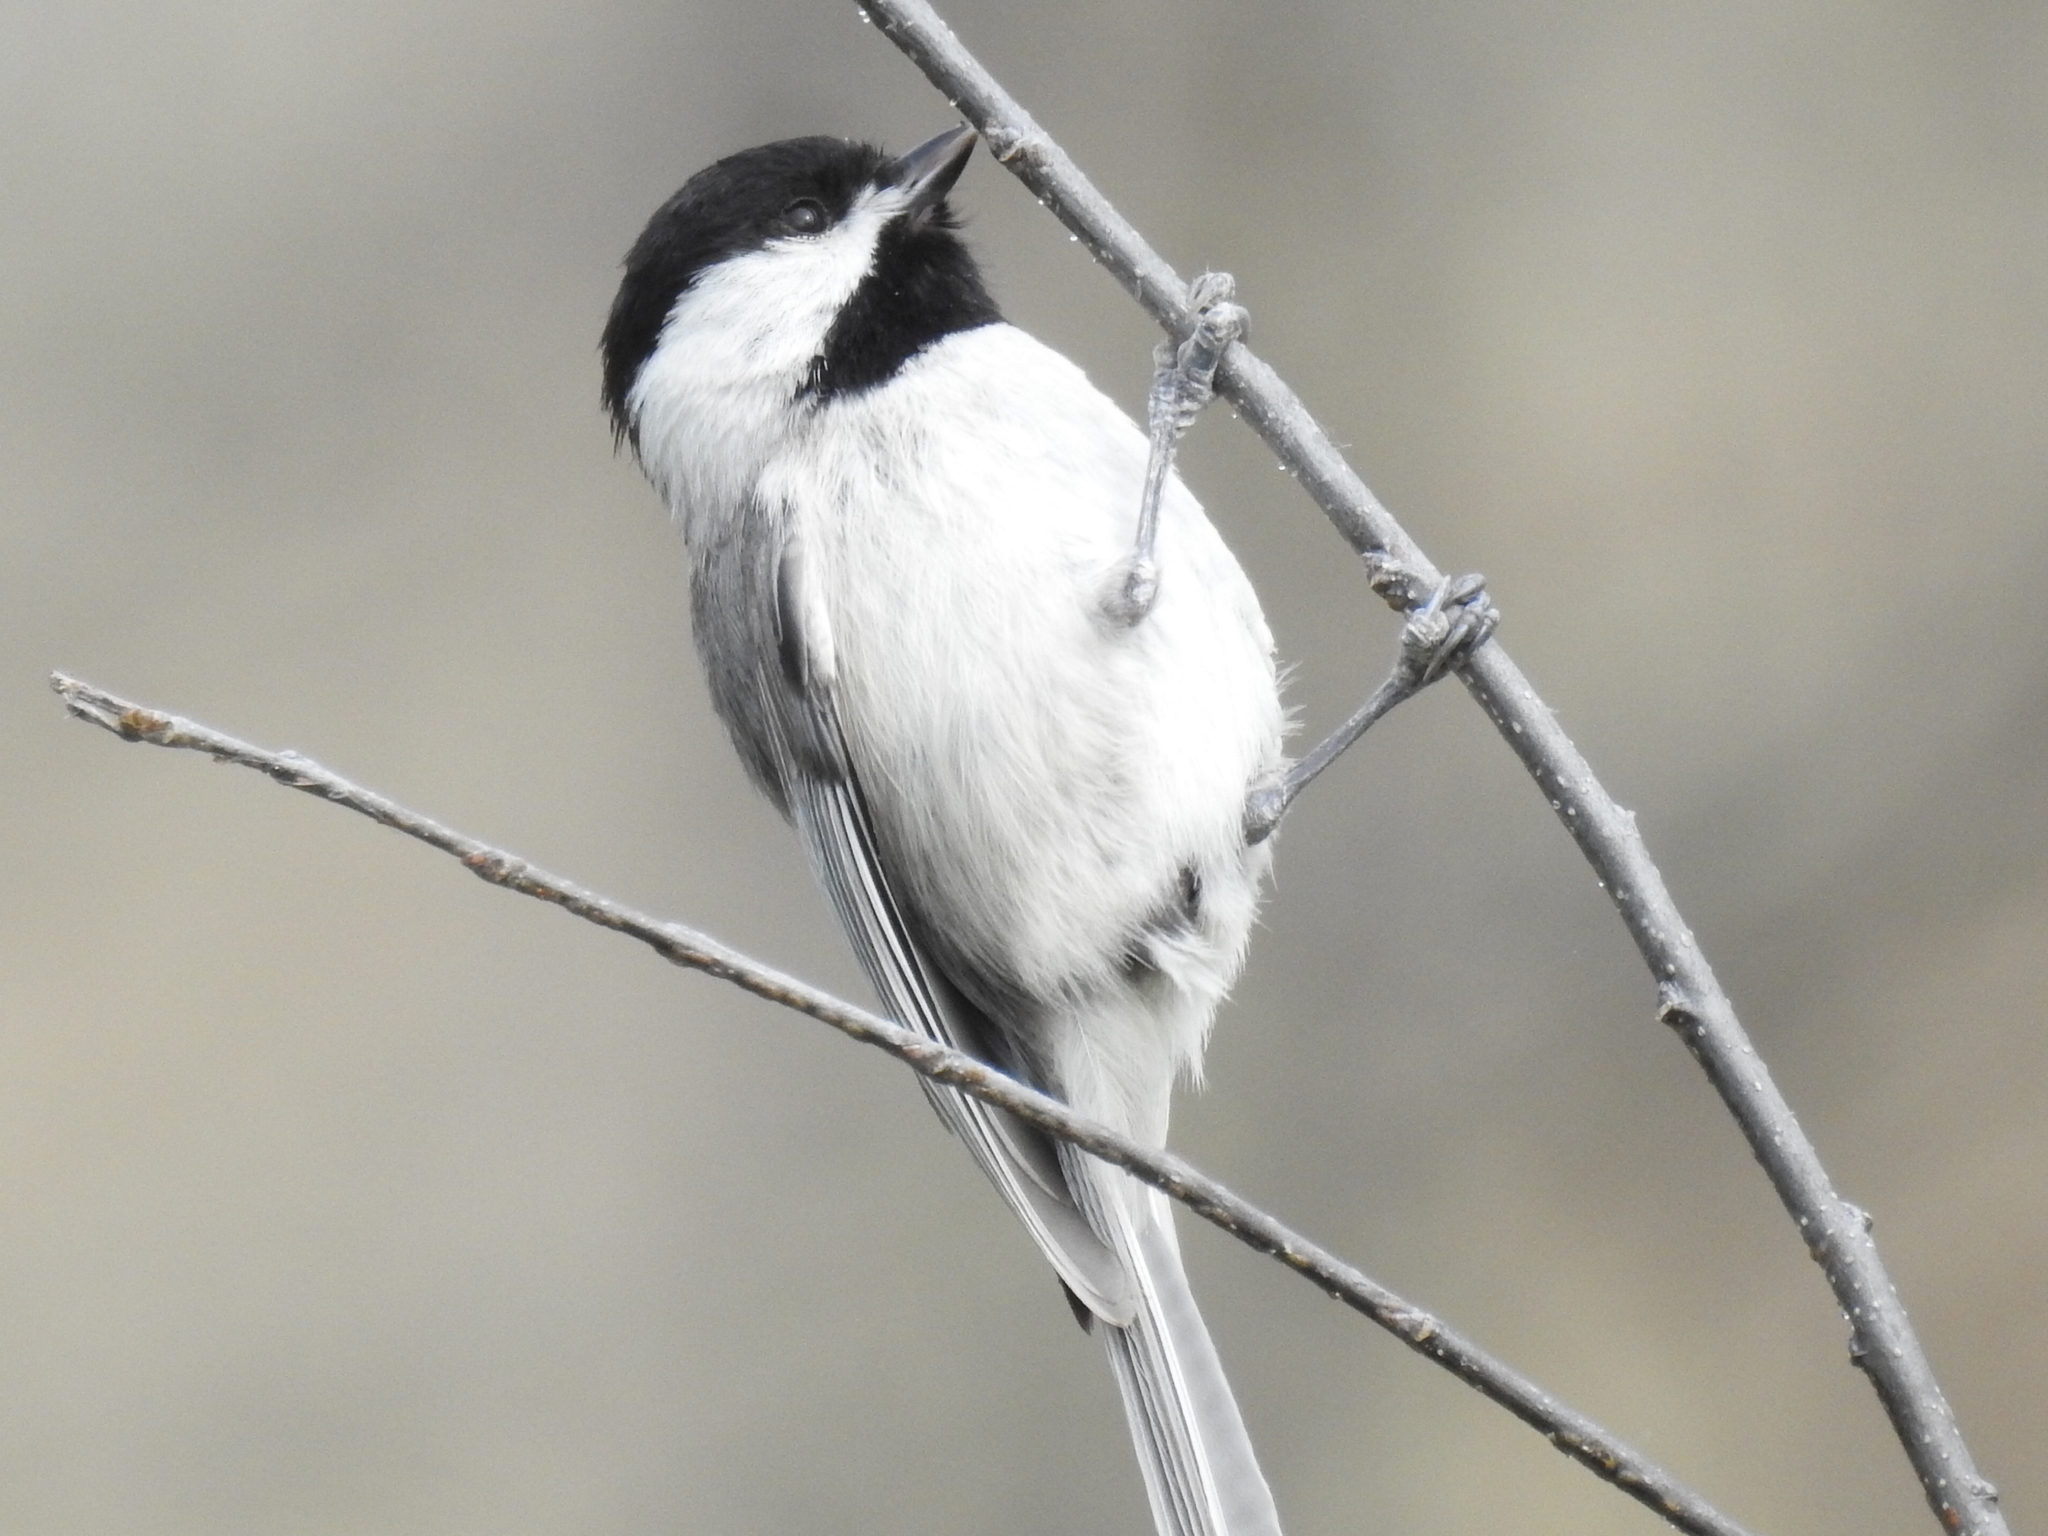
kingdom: Animalia
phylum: Chordata
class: Aves
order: Passeriformes
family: Paridae
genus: Poecile
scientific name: Poecile carolinensis
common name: Carolina chickadee
